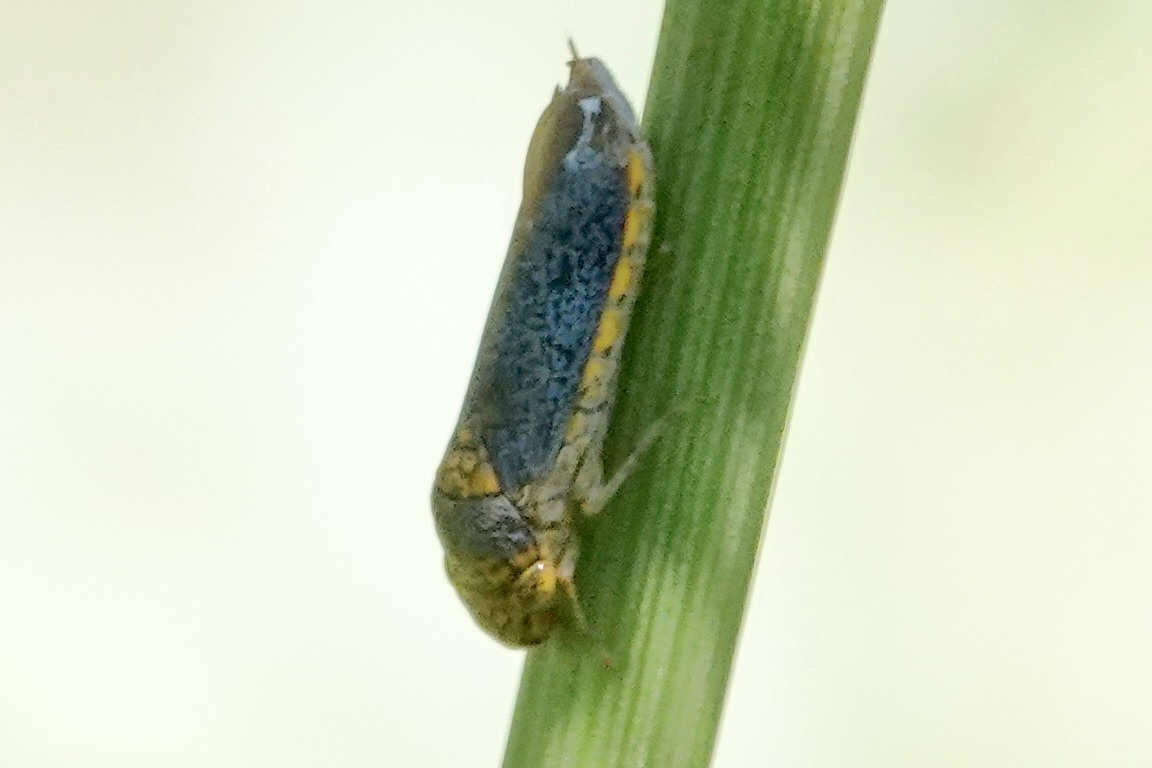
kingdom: Animalia
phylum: Arthropoda
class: Insecta
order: Hemiptera
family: Cicadellidae
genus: Oncometopia
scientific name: Oncometopia orbona
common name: Broad-headed sharpshooter
